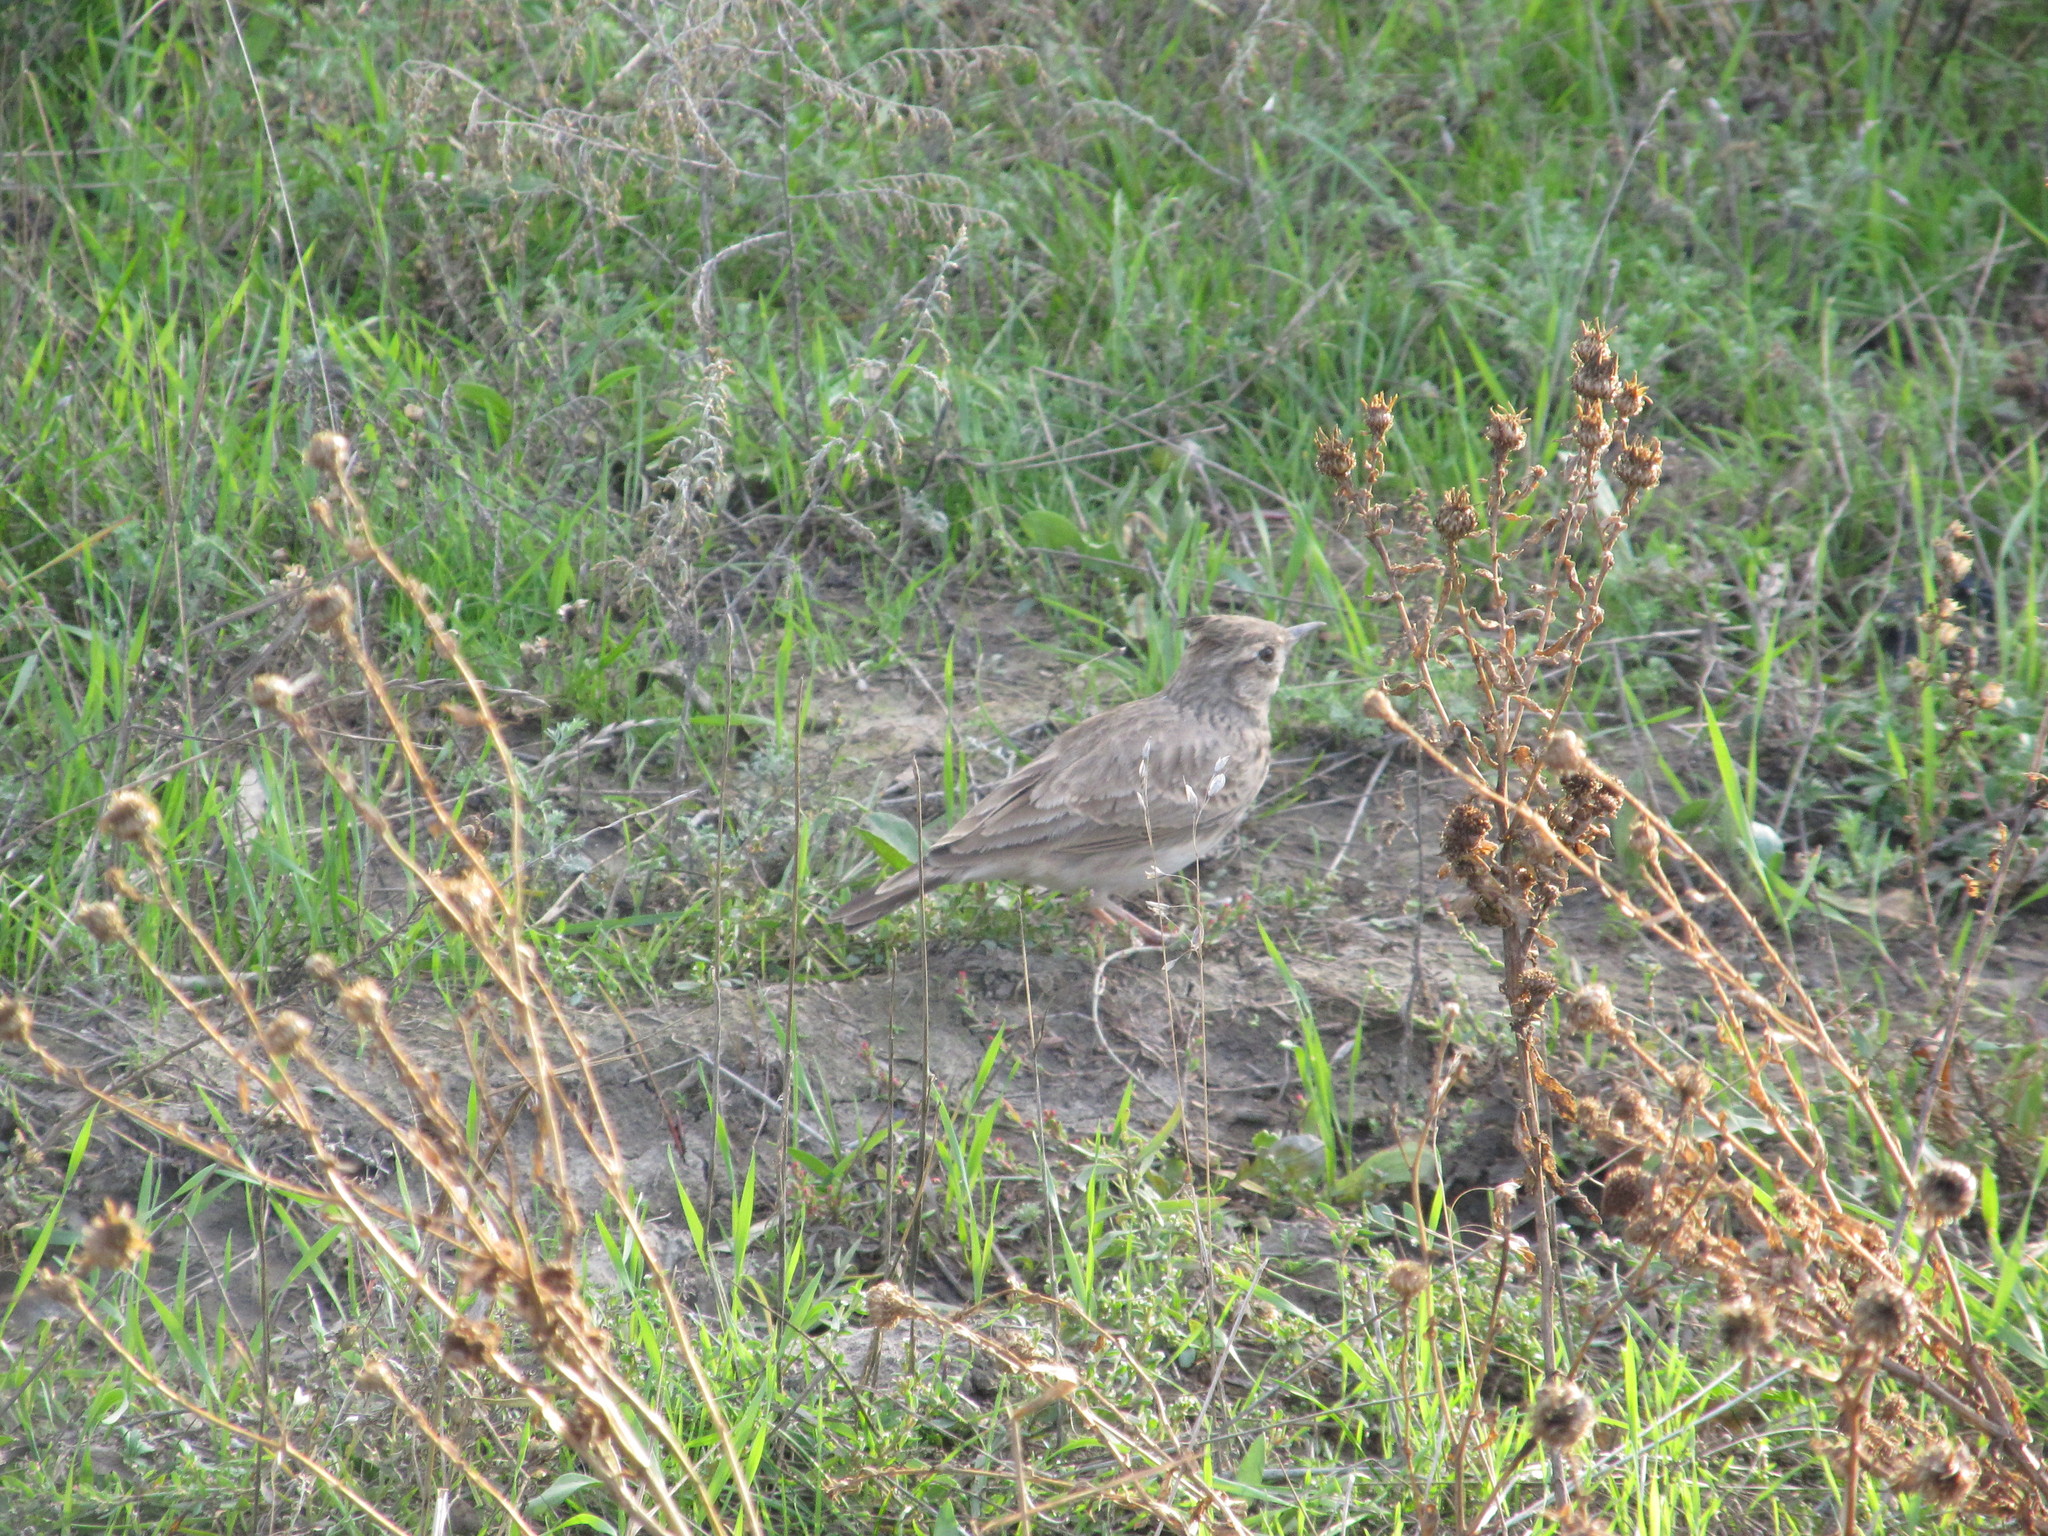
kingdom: Animalia
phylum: Chordata
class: Aves
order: Passeriformes
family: Alaudidae
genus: Galerida
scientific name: Galerida cristata
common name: Crested lark
